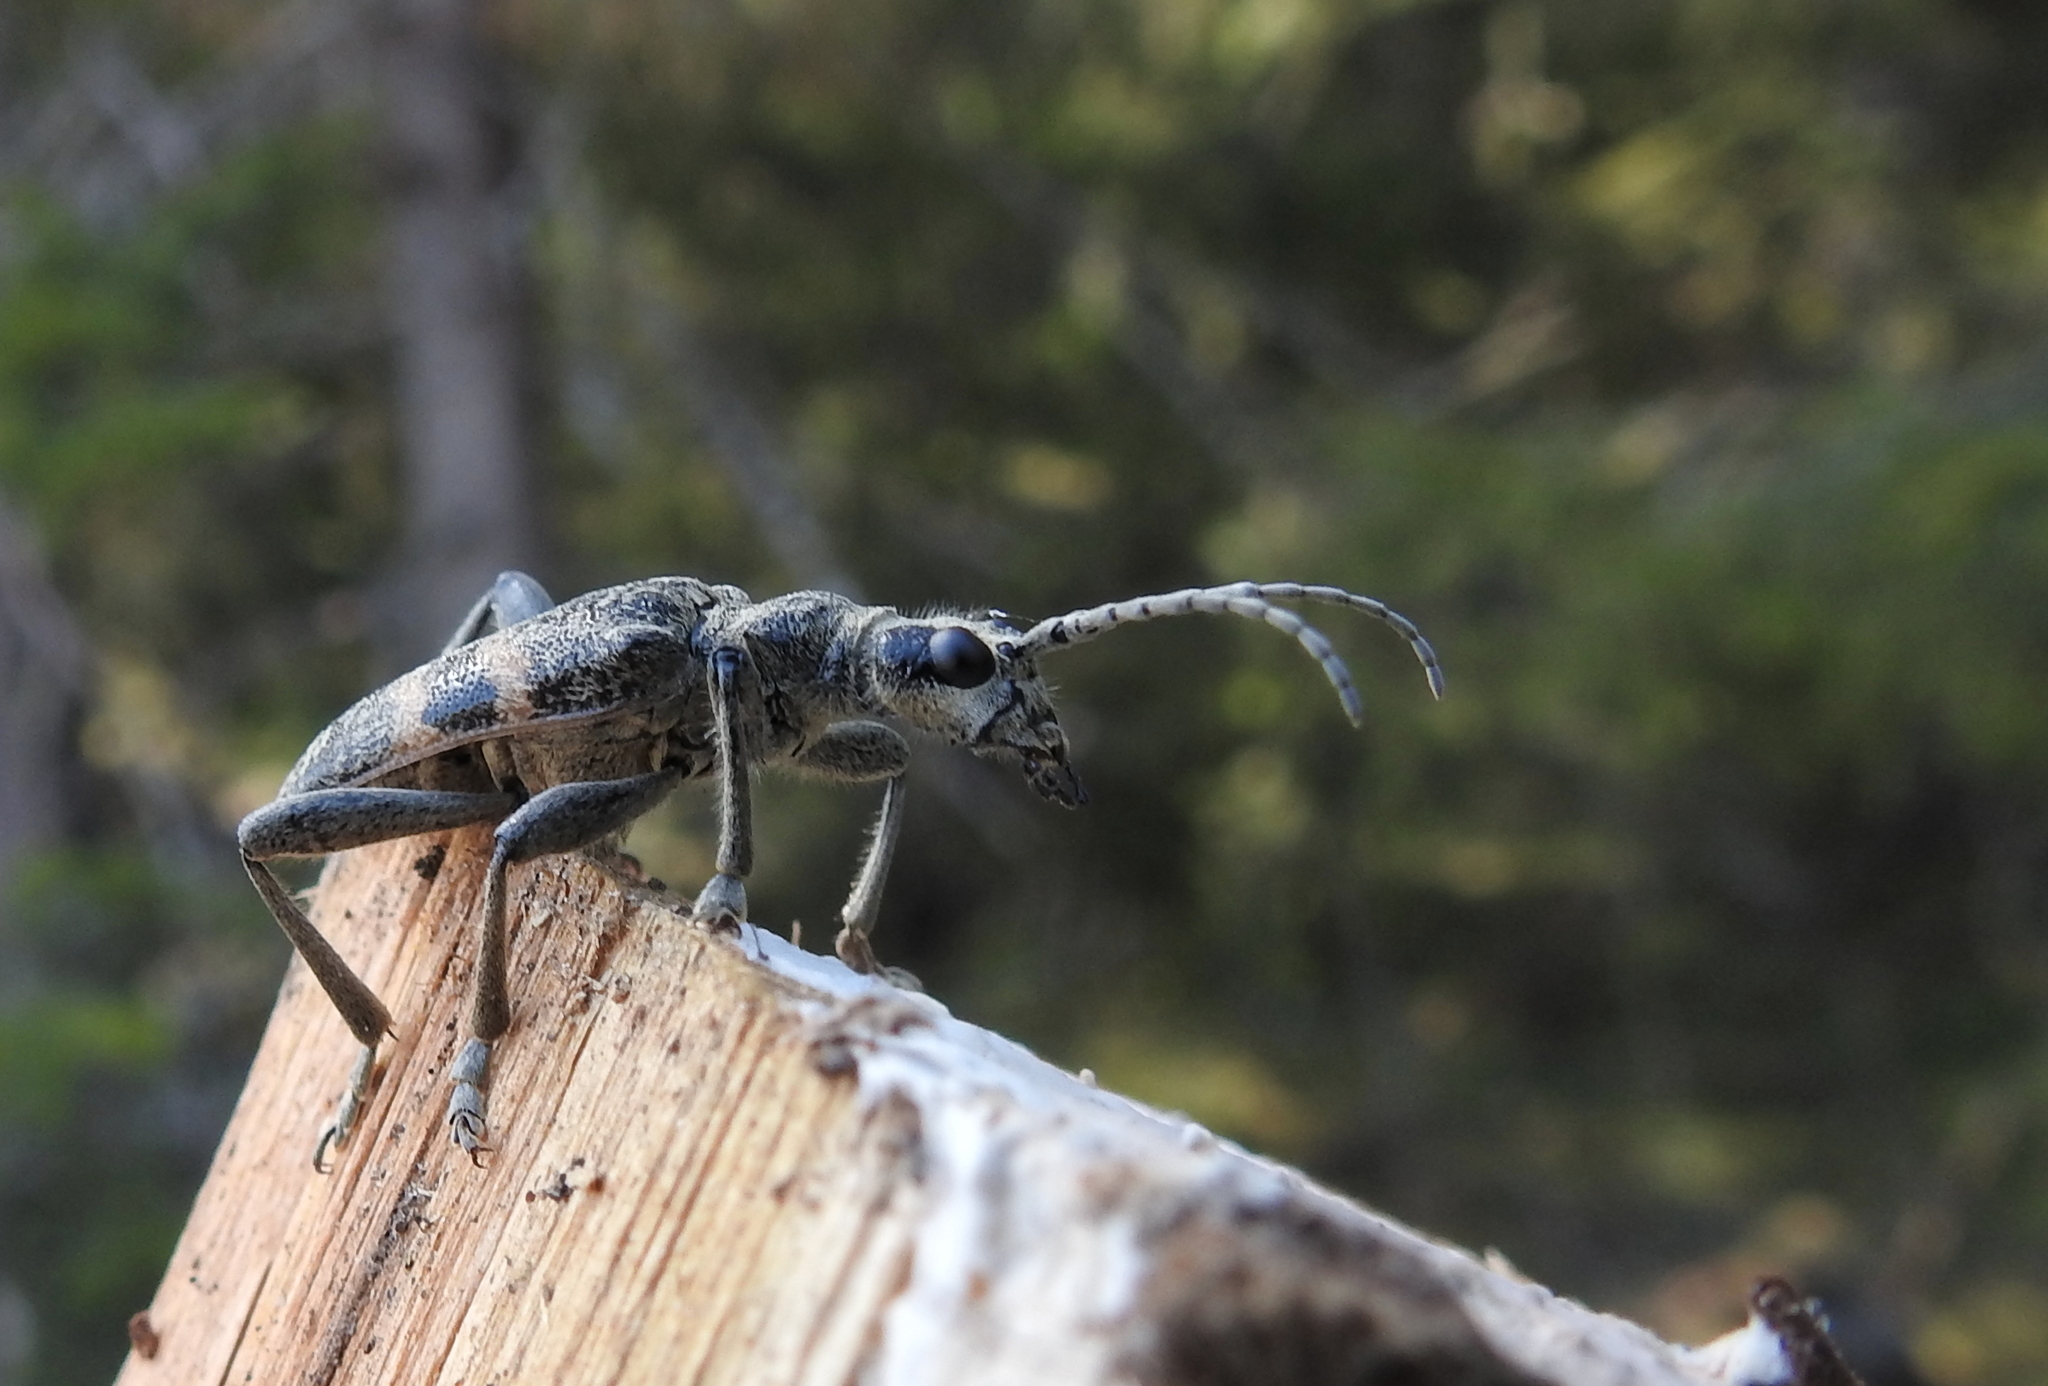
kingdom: Animalia
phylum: Arthropoda
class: Insecta
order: Coleoptera
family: Cerambycidae
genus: Rhagium
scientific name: Rhagium mordax
